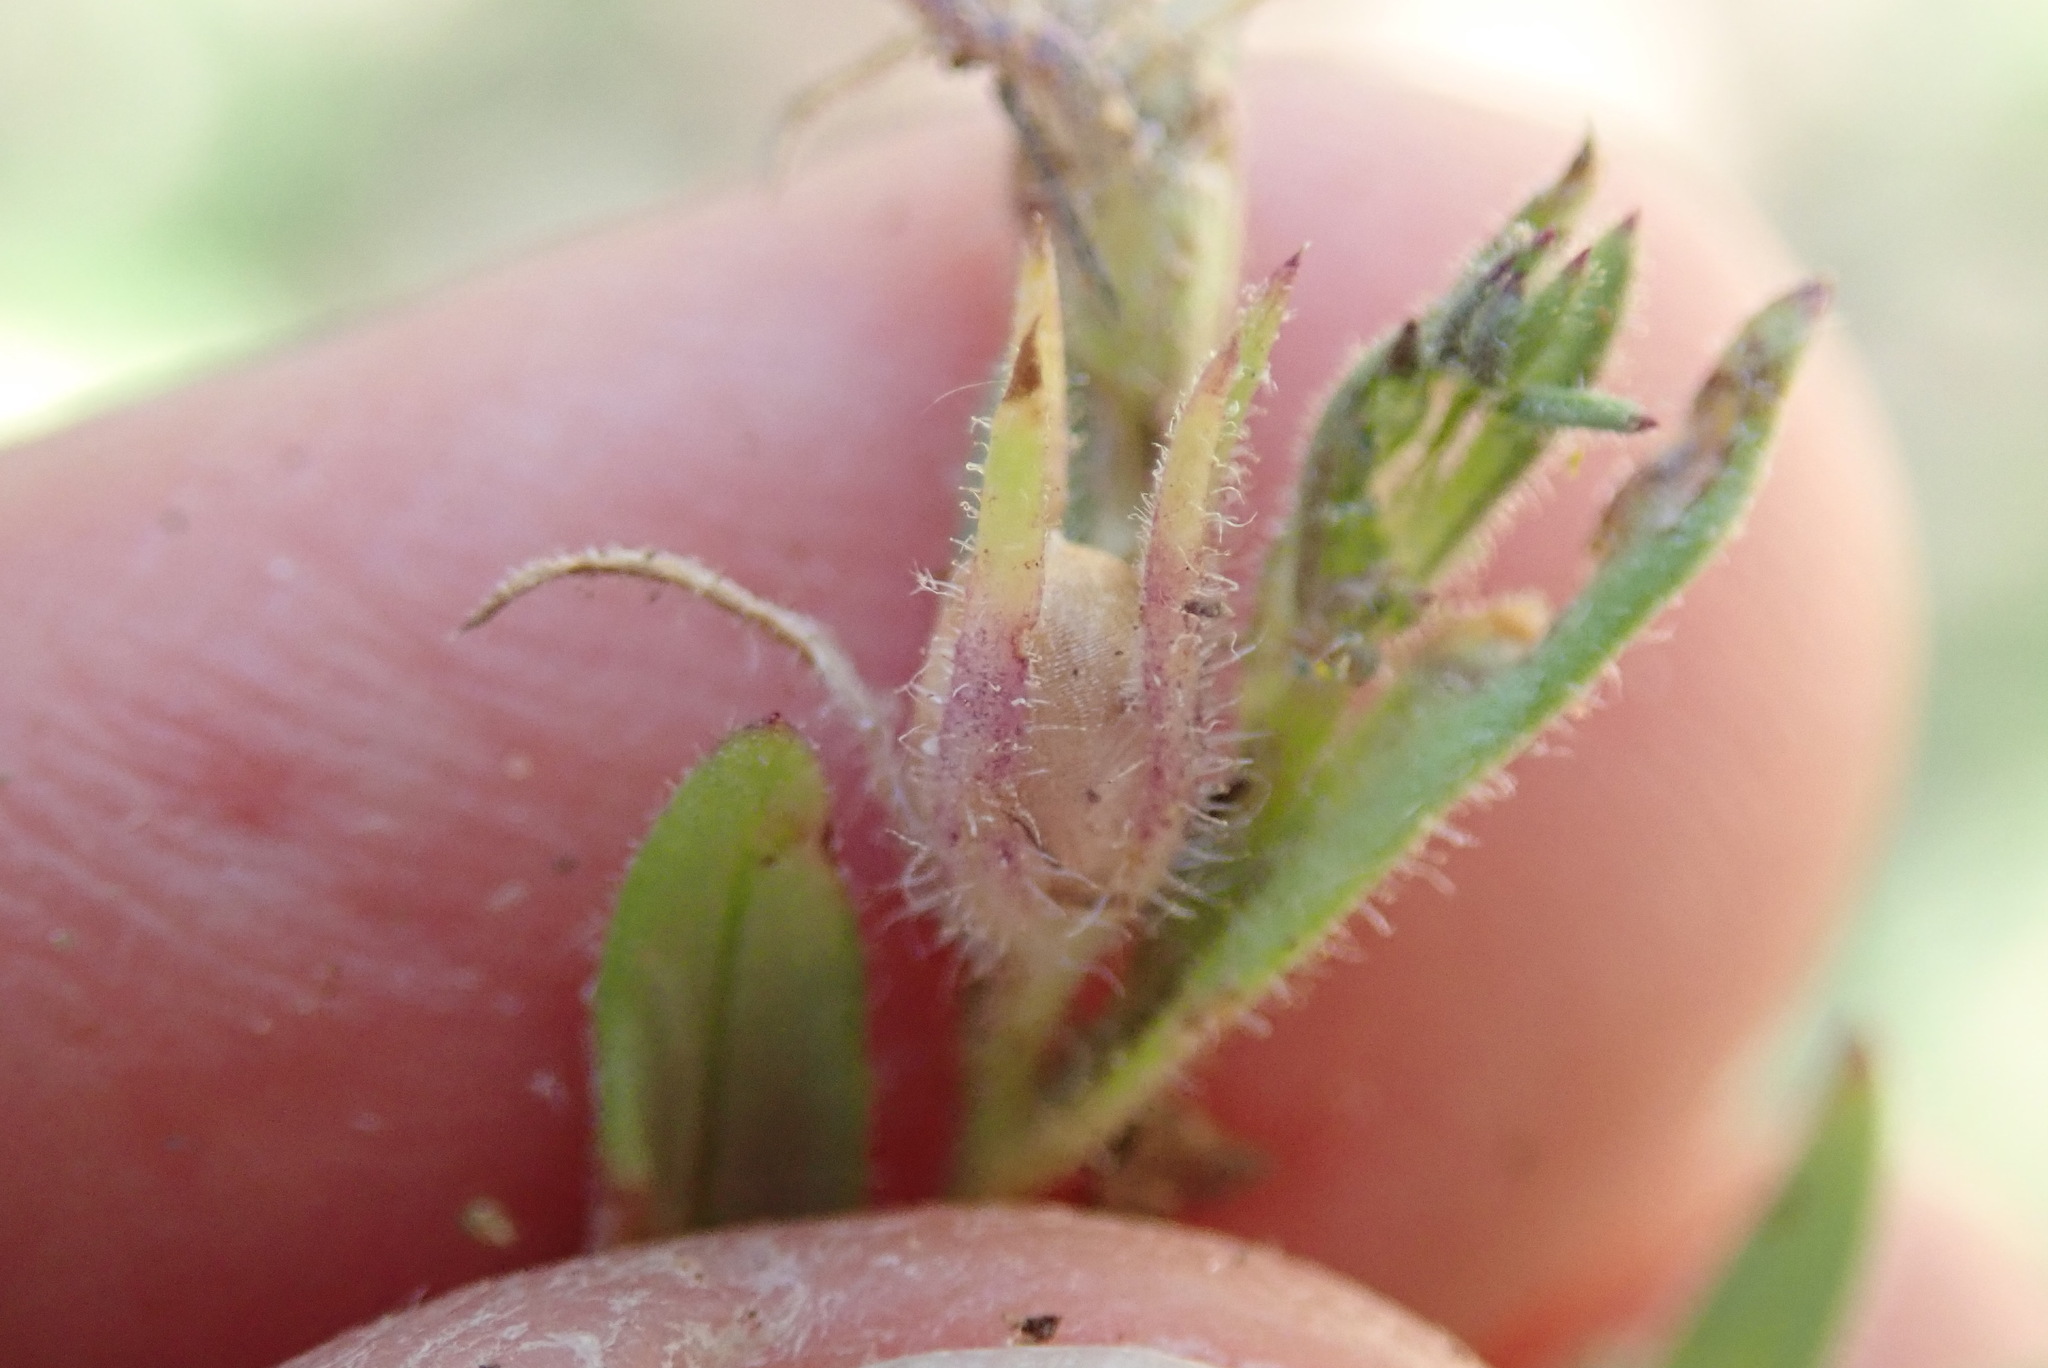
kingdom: Plantae
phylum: Tracheophyta
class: Magnoliopsida
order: Ericales
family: Polemoniaceae
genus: Phlox
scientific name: Phlox gracilis
